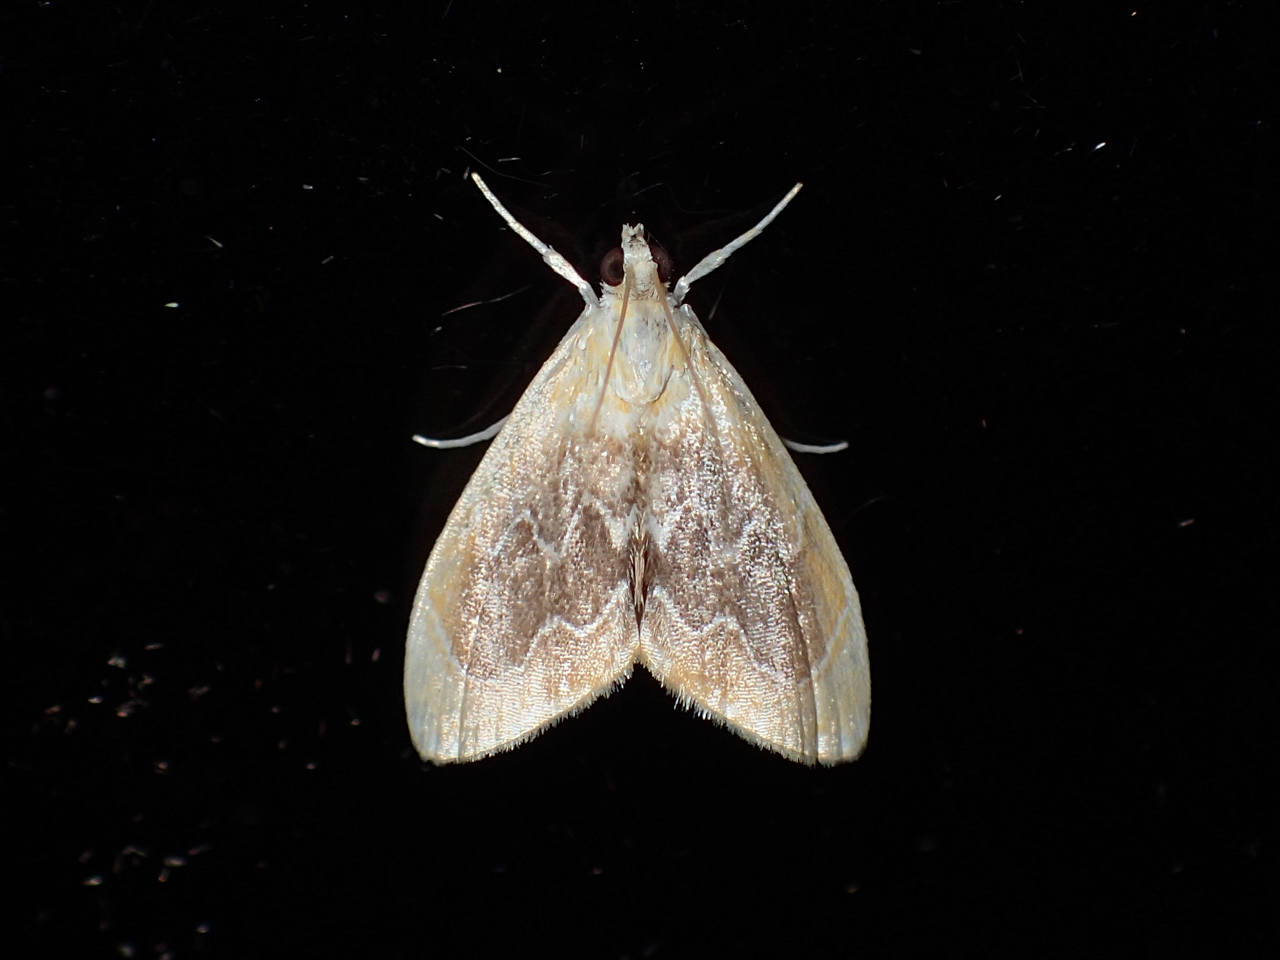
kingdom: Animalia
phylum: Arthropoda
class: Insecta
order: Lepidoptera
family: Crambidae
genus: Glaphyria
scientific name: Glaphyria fulminalis
